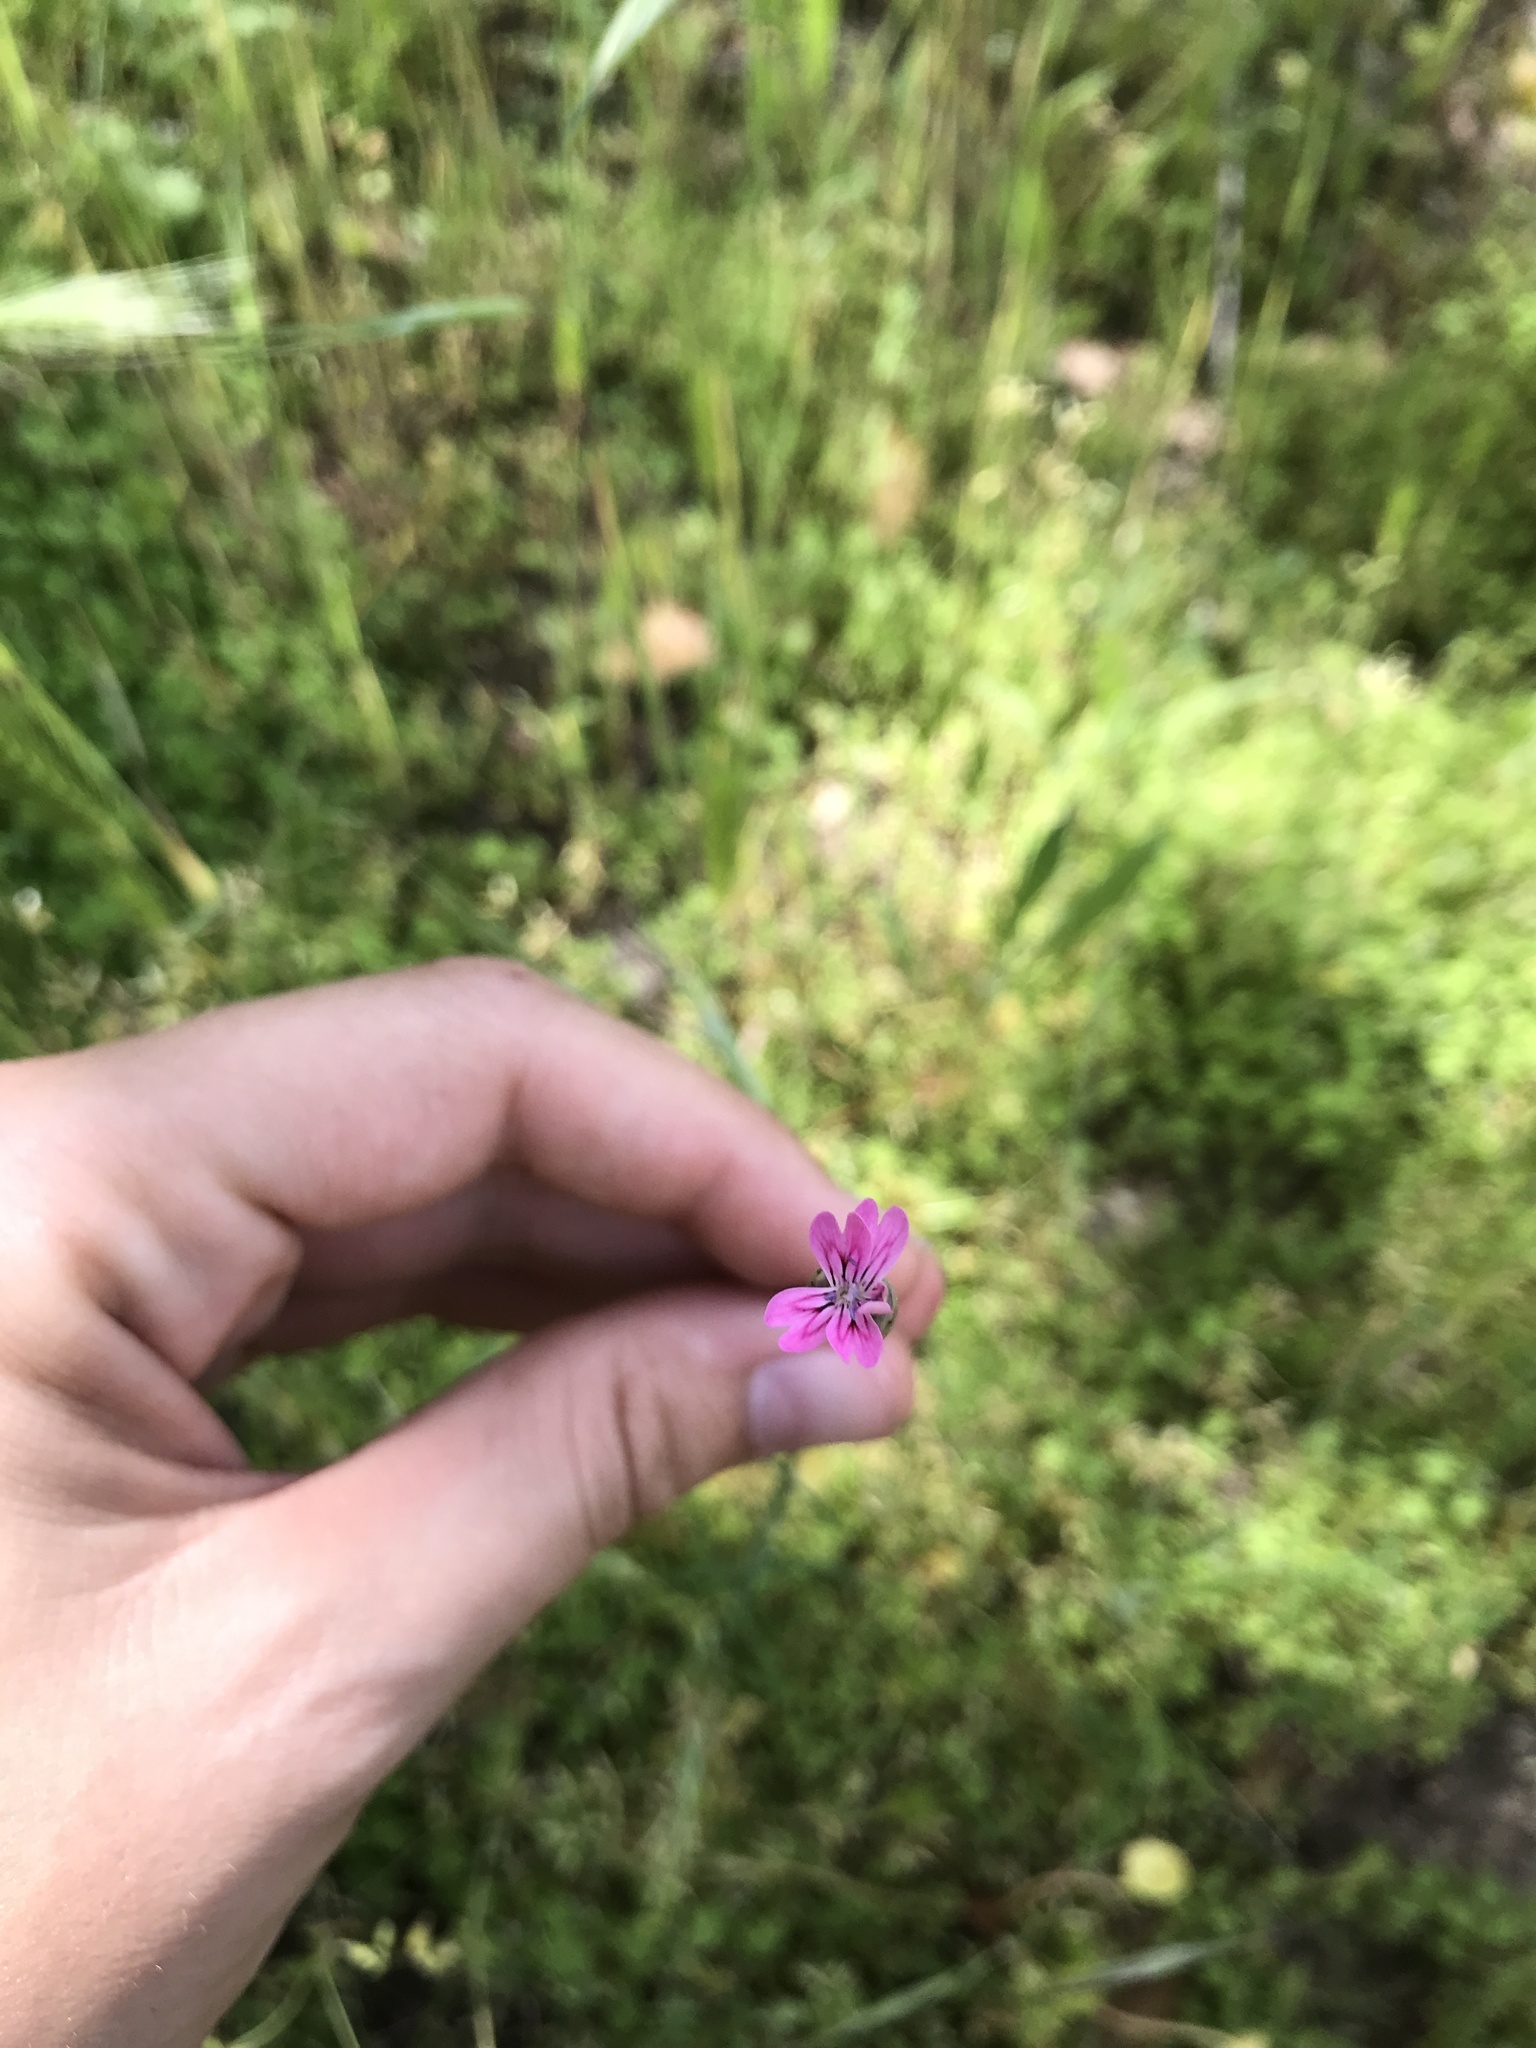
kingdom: Plantae
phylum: Tracheophyta
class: Magnoliopsida
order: Caryophyllales
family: Caryophyllaceae
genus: Petrorhagia
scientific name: Petrorhagia dubia
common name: Hairypink
